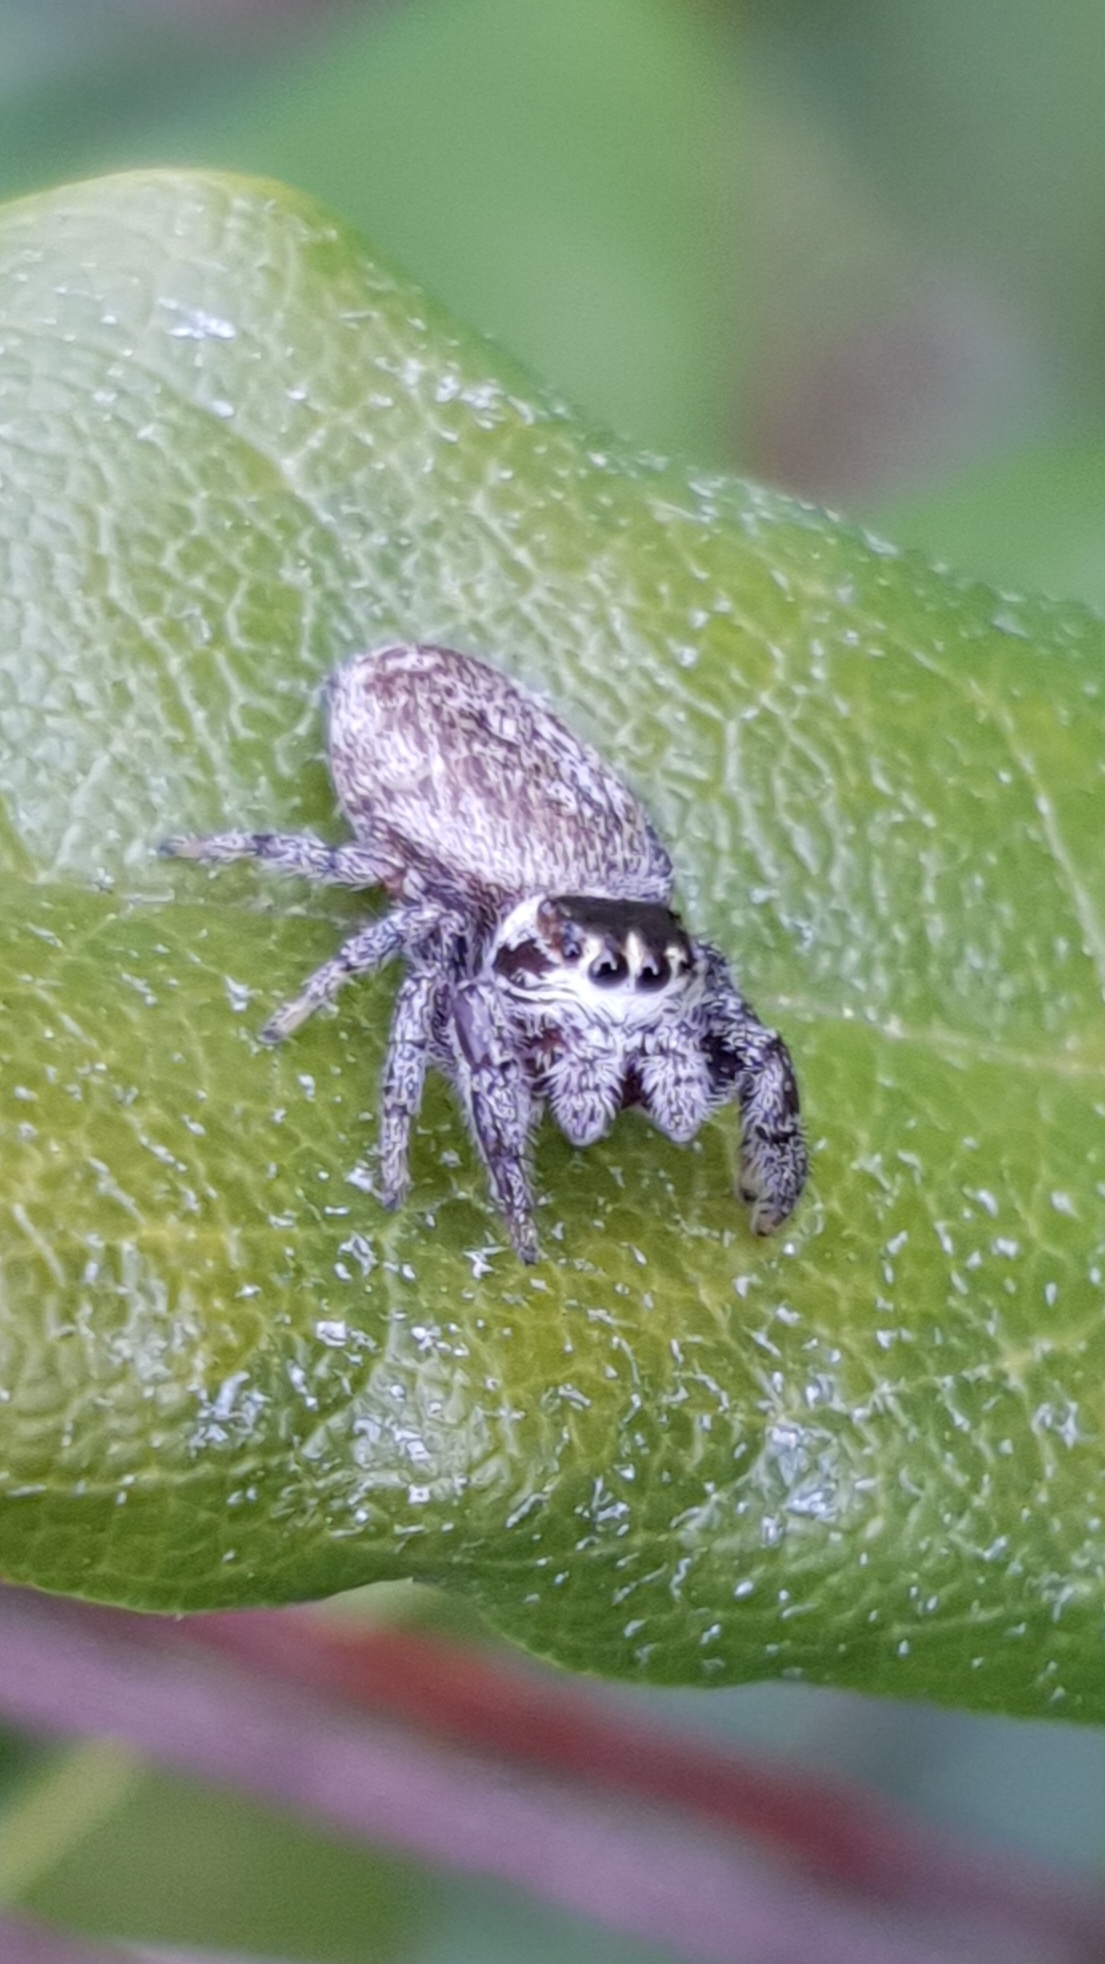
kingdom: Animalia
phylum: Arthropoda
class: Arachnida
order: Araneae
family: Salticidae
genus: Macaroeris
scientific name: Macaroeris nidicolens
